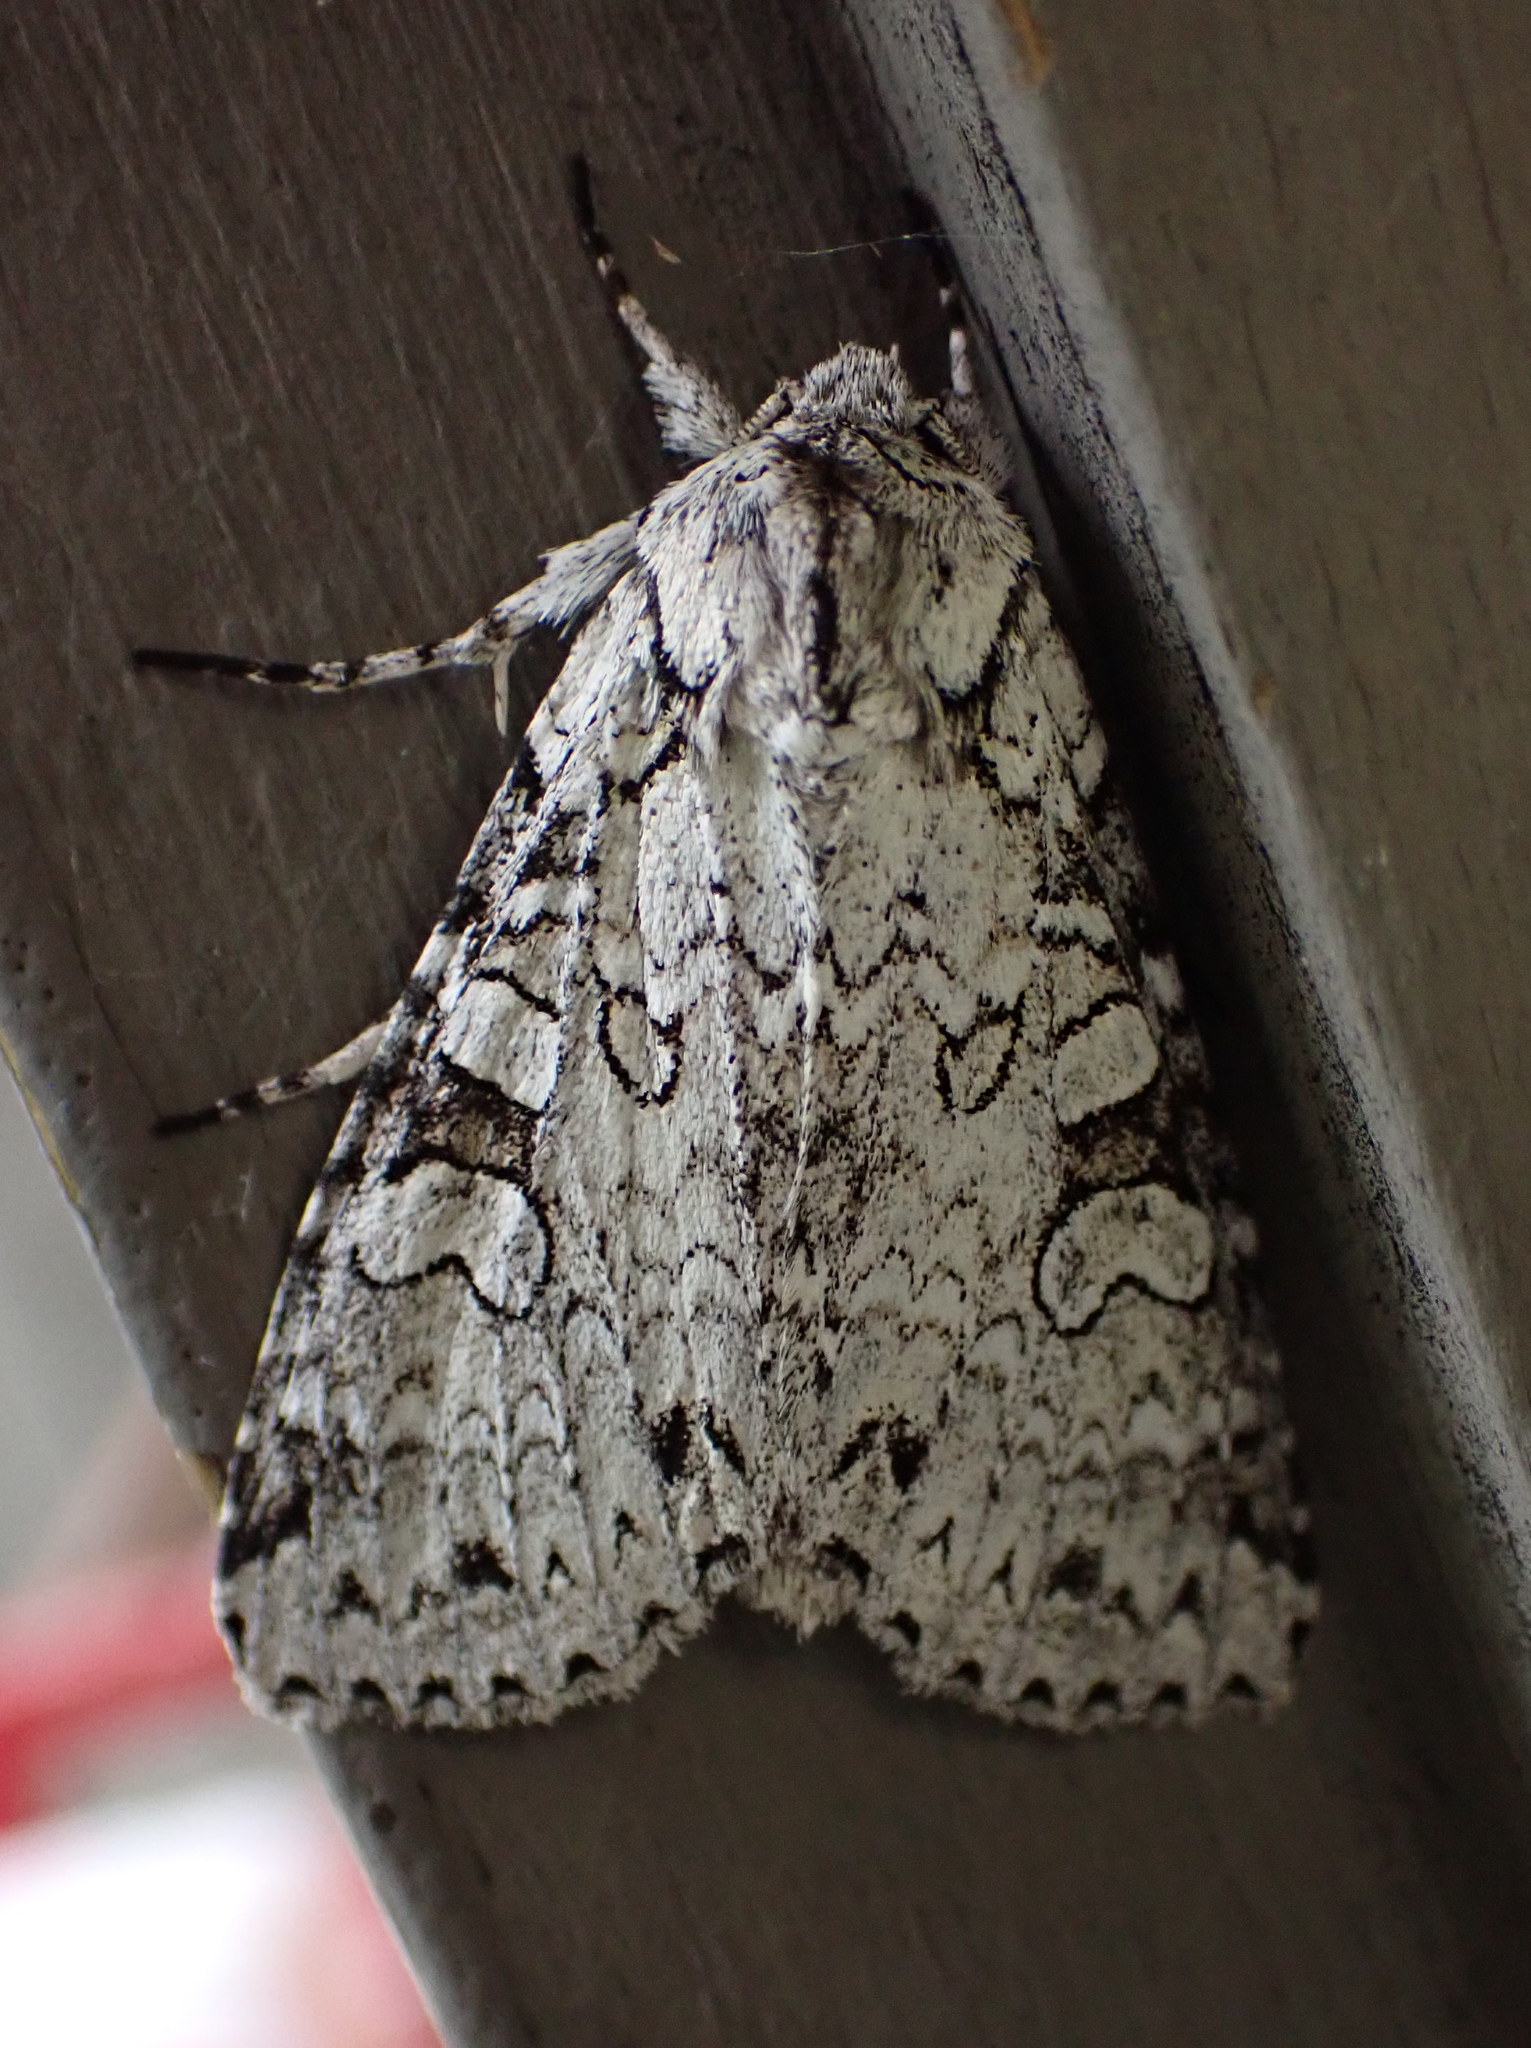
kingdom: Animalia
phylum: Arthropoda
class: Insecta
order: Lepidoptera
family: Noctuidae
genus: Polia
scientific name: Polia nimbosa
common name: Stormy arches
